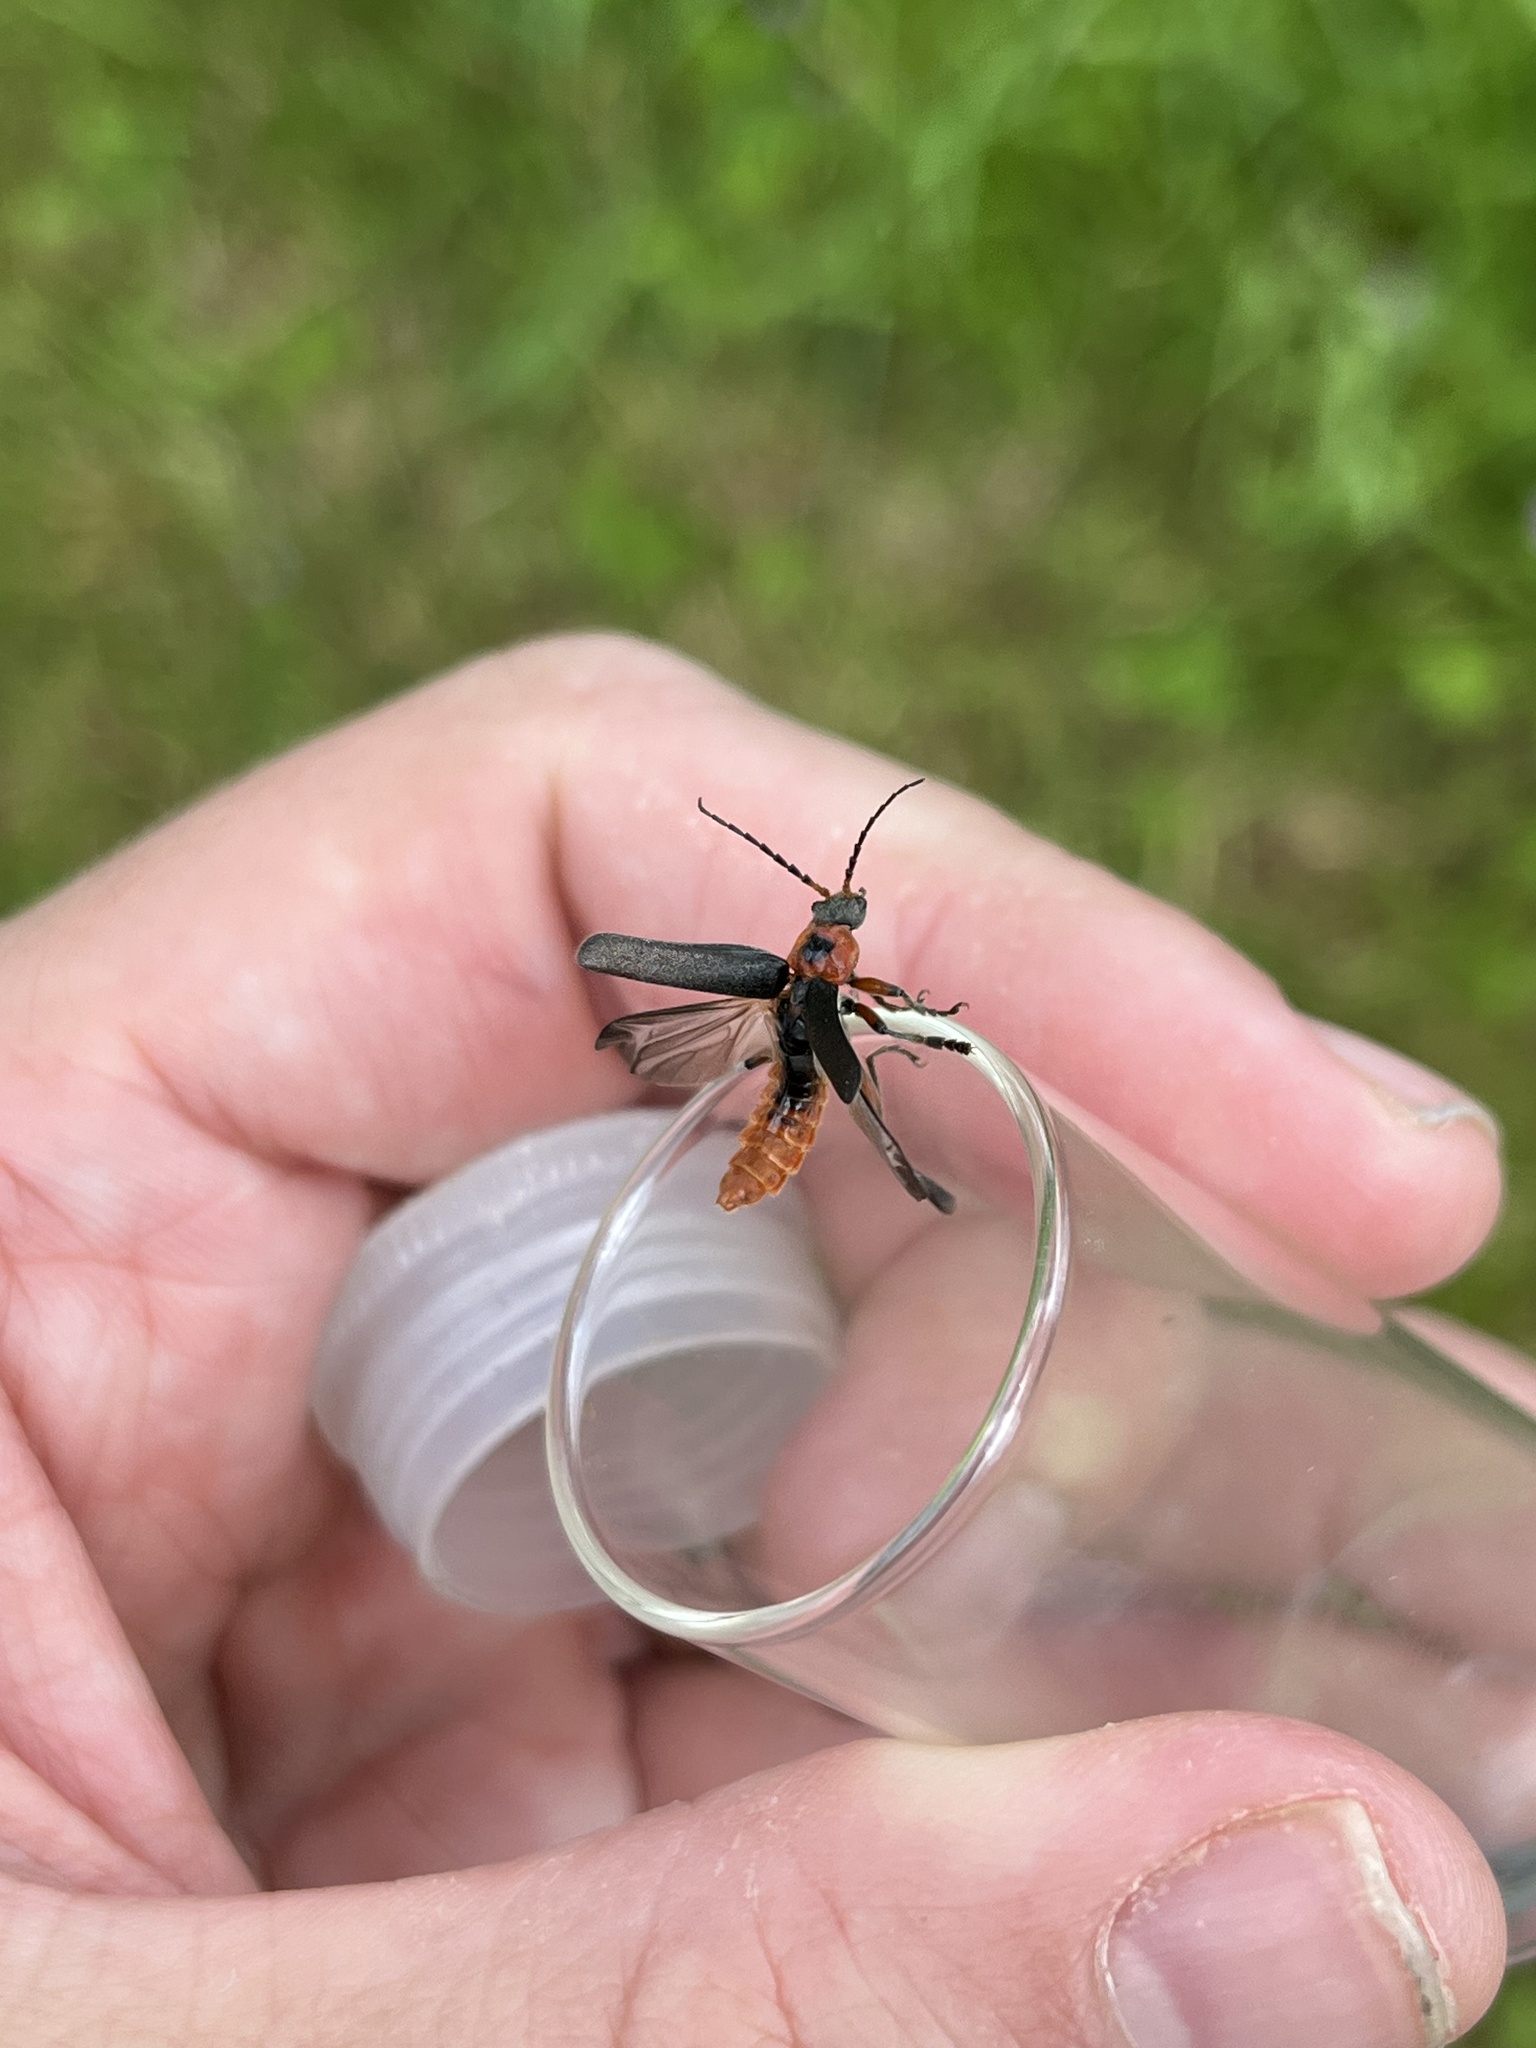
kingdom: Animalia
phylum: Arthropoda
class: Insecta
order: Coleoptera
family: Cantharidae
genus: Cantharis
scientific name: Cantharis rustica
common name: Soldier beetle
